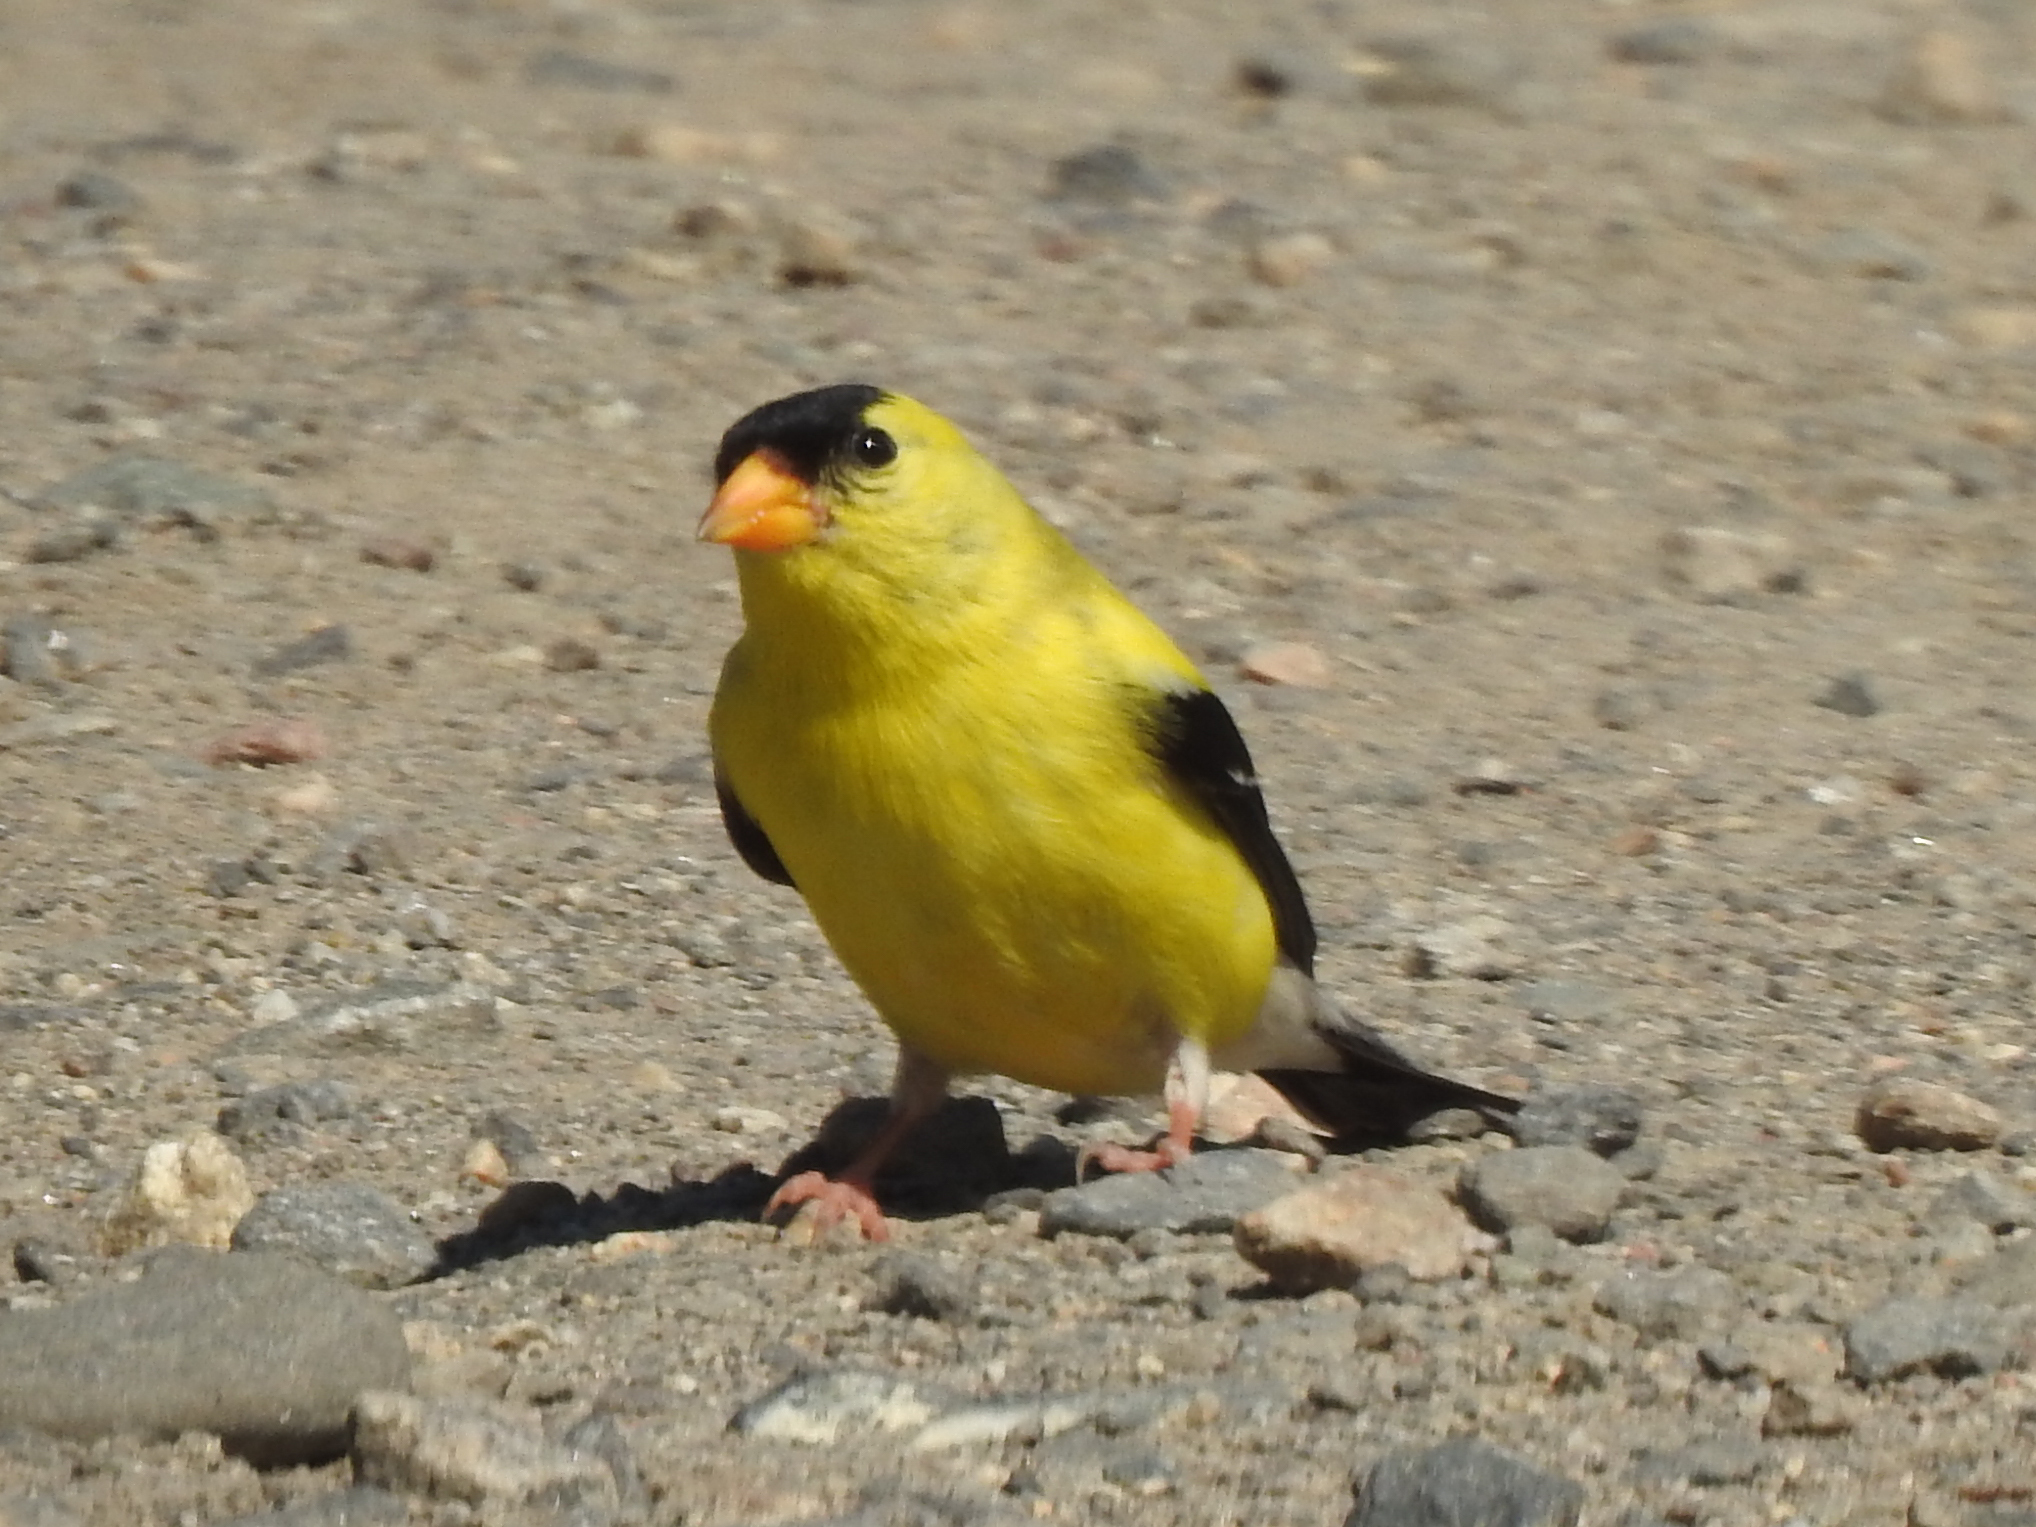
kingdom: Animalia
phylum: Chordata
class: Aves
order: Passeriformes
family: Fringillidae
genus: Spinus
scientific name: Spinus tristis
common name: American goldfinch
